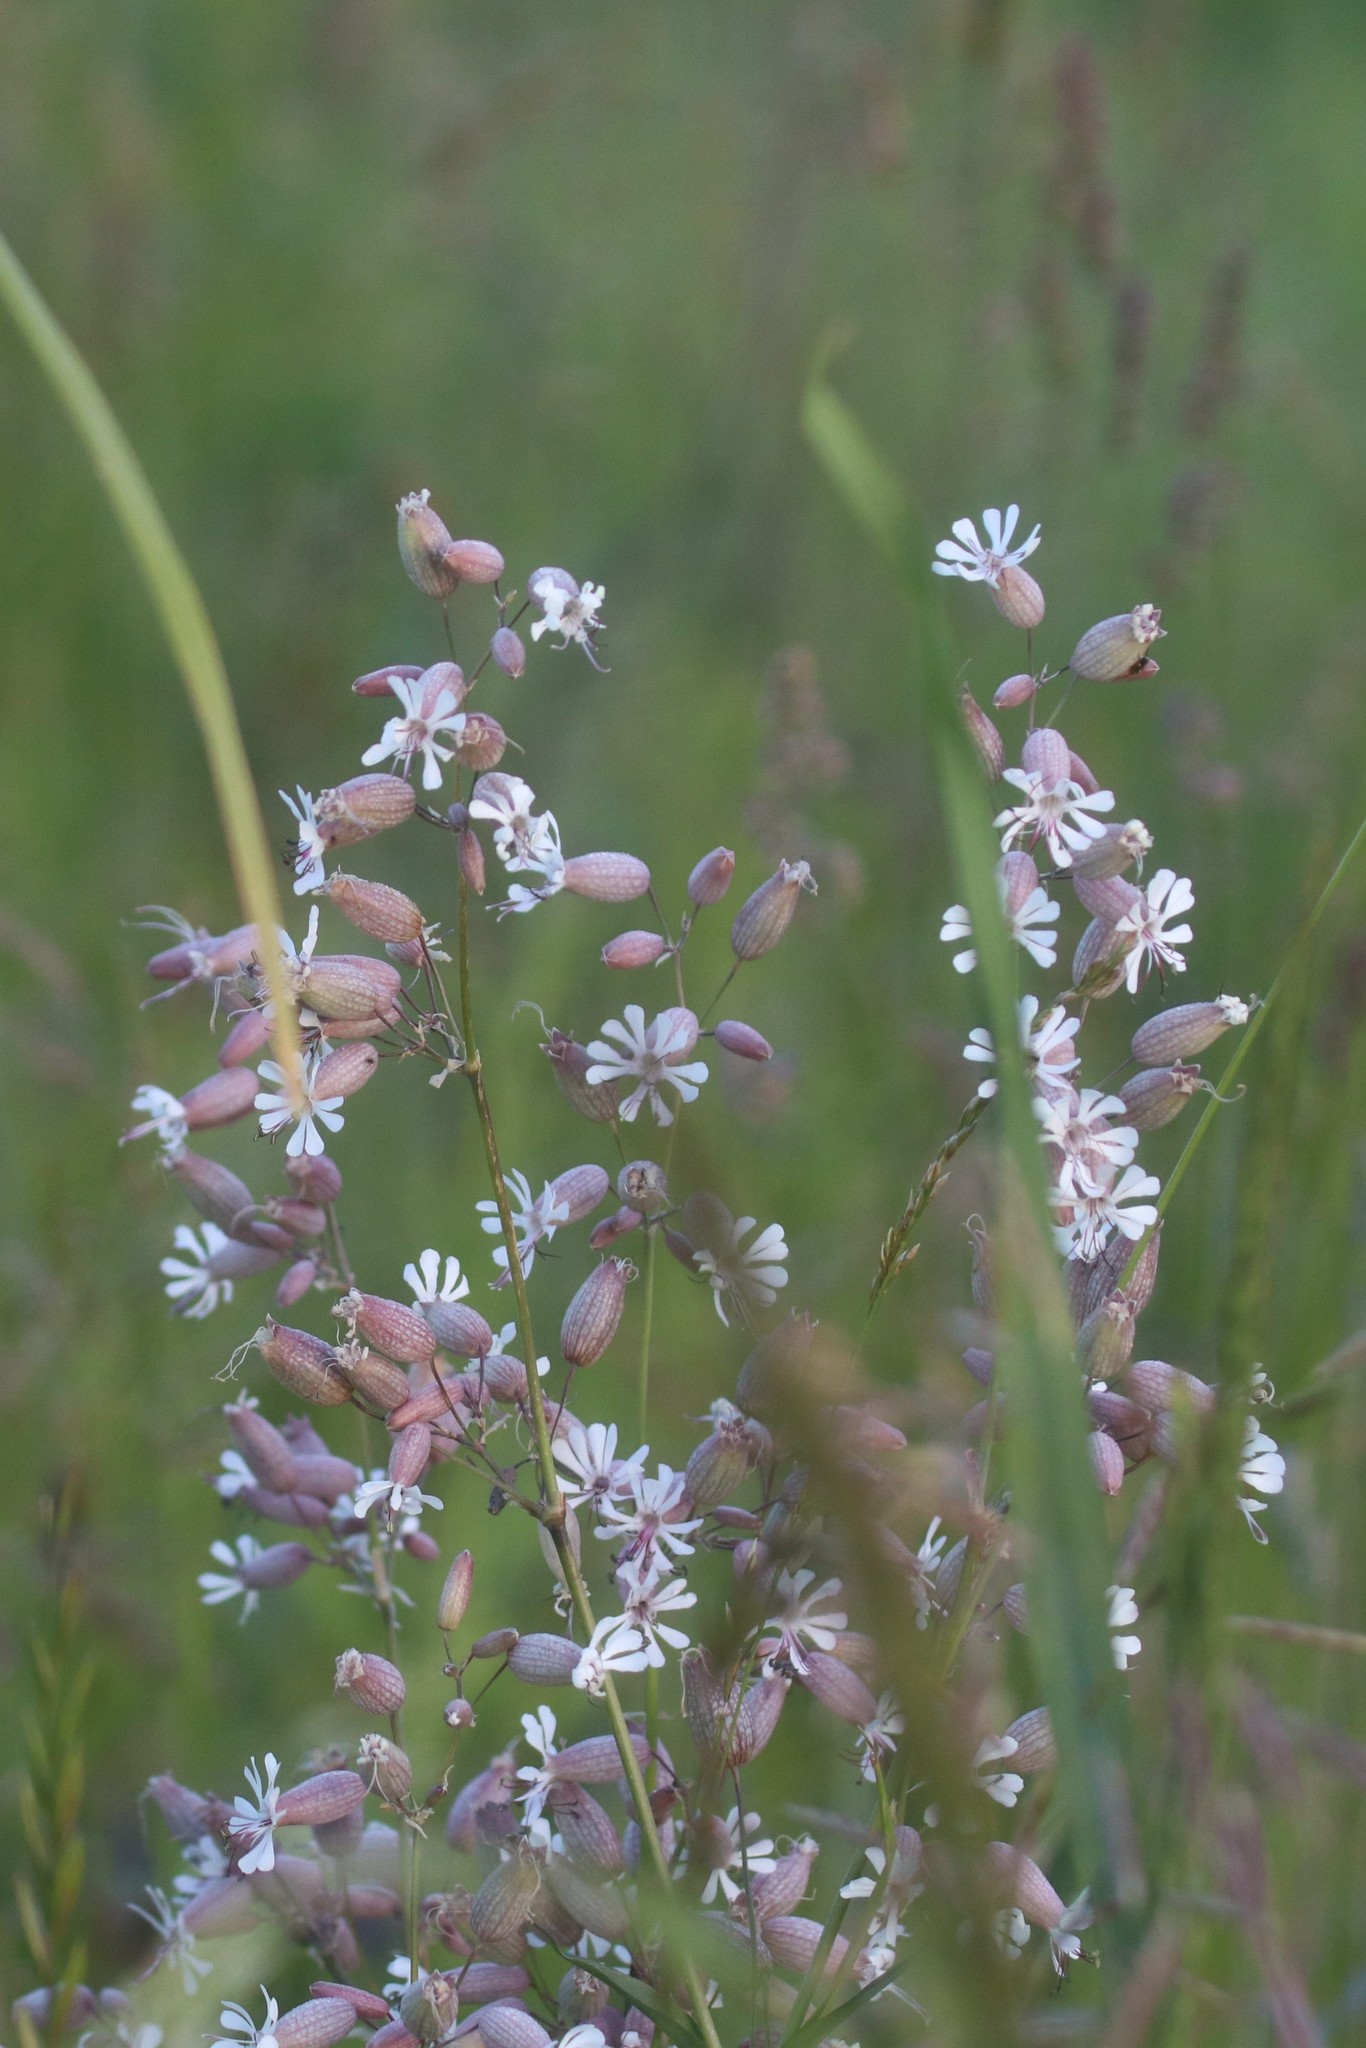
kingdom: Plantae
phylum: Tracheophyta
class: Magnoliopsida
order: Caryophyllales
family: Caryophyllaceae
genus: Silene
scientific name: Silene vulgaris
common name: Bladder campion
